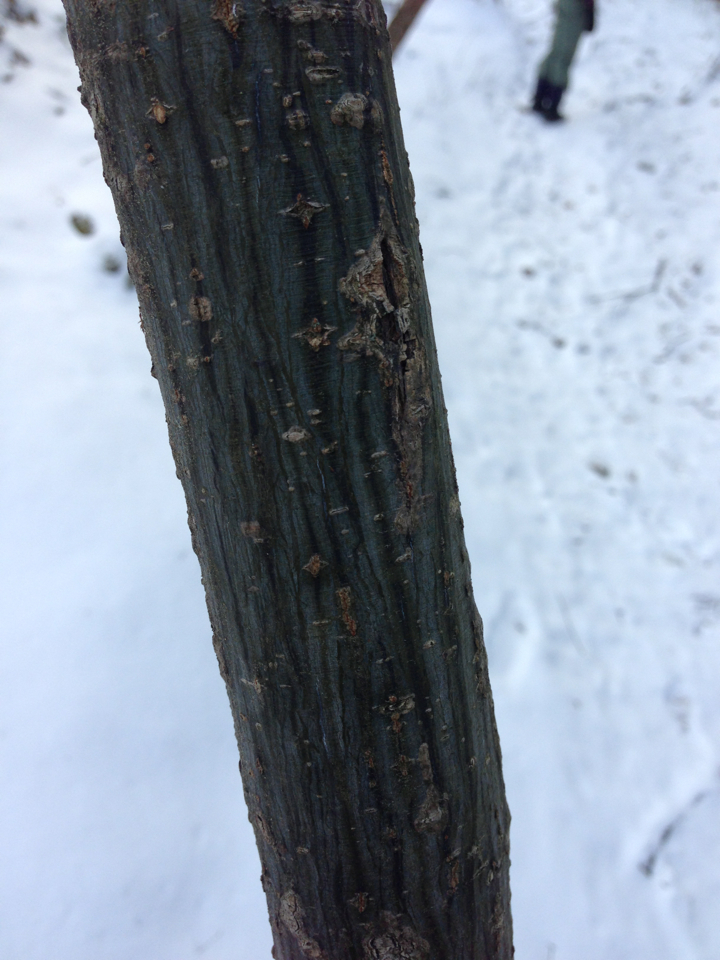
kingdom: Plantae
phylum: Tracheophyta
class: Magnoliopsida
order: Sapindales
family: Sapindaceae
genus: Acer
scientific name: Acer pensylvanicum
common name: Moosewood
